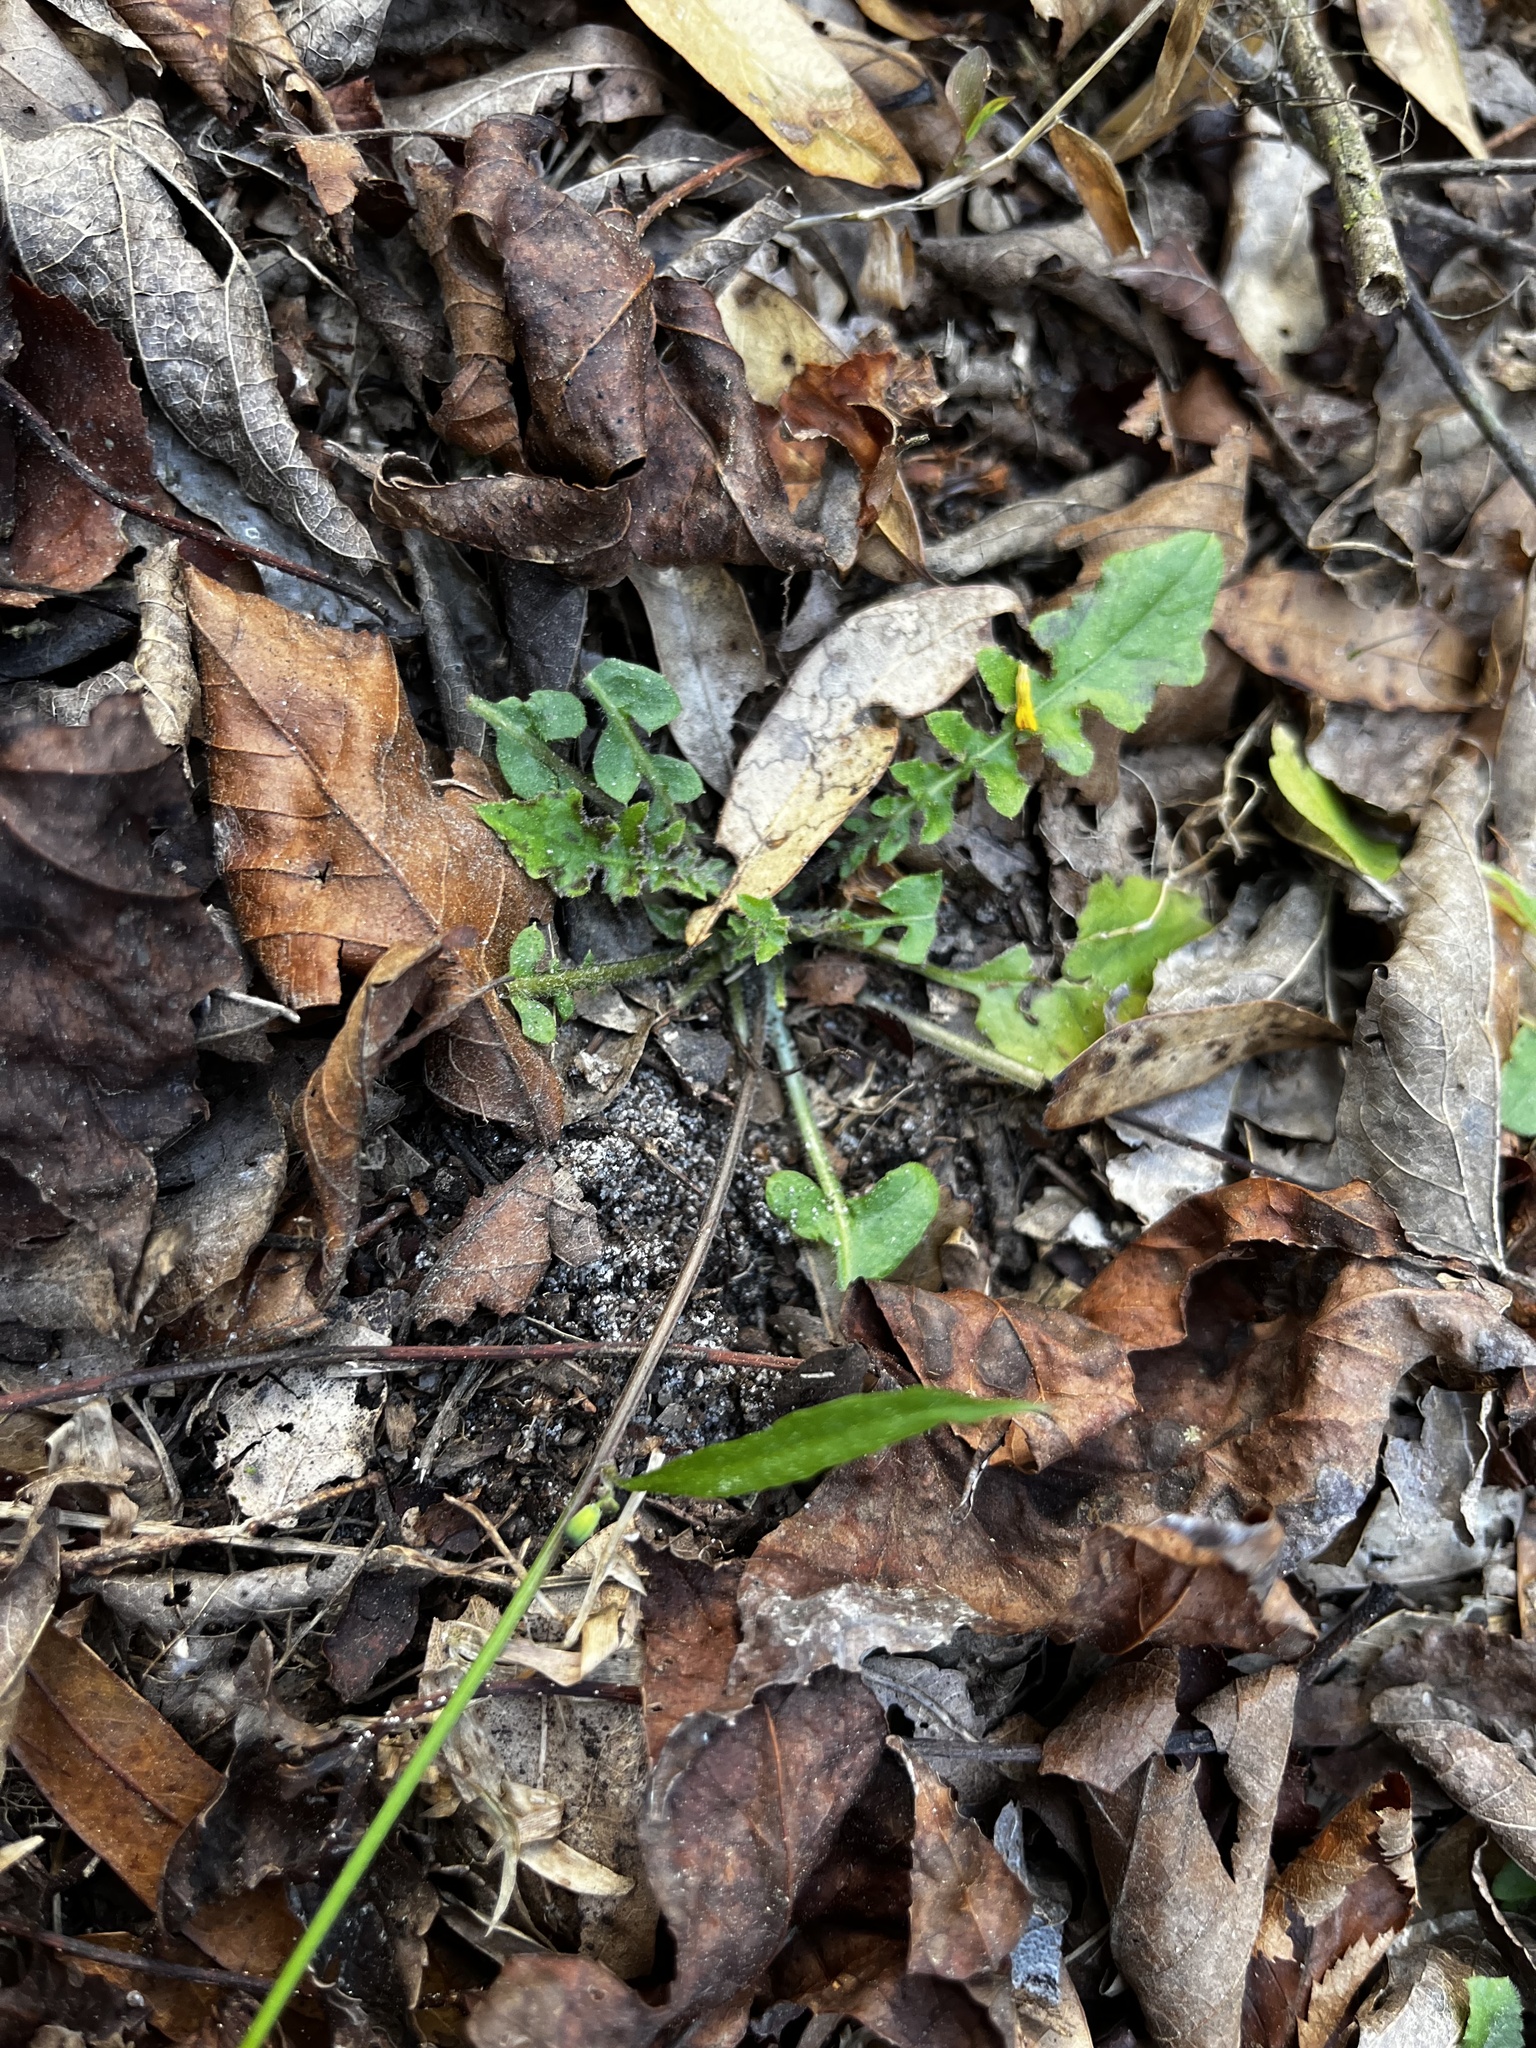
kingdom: Plantae
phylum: Tracheophyta
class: Magnoliopsida
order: Asterales
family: Asteraceae
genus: Youngia
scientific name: Youngia japonica
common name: Oriental false hawksbeard
